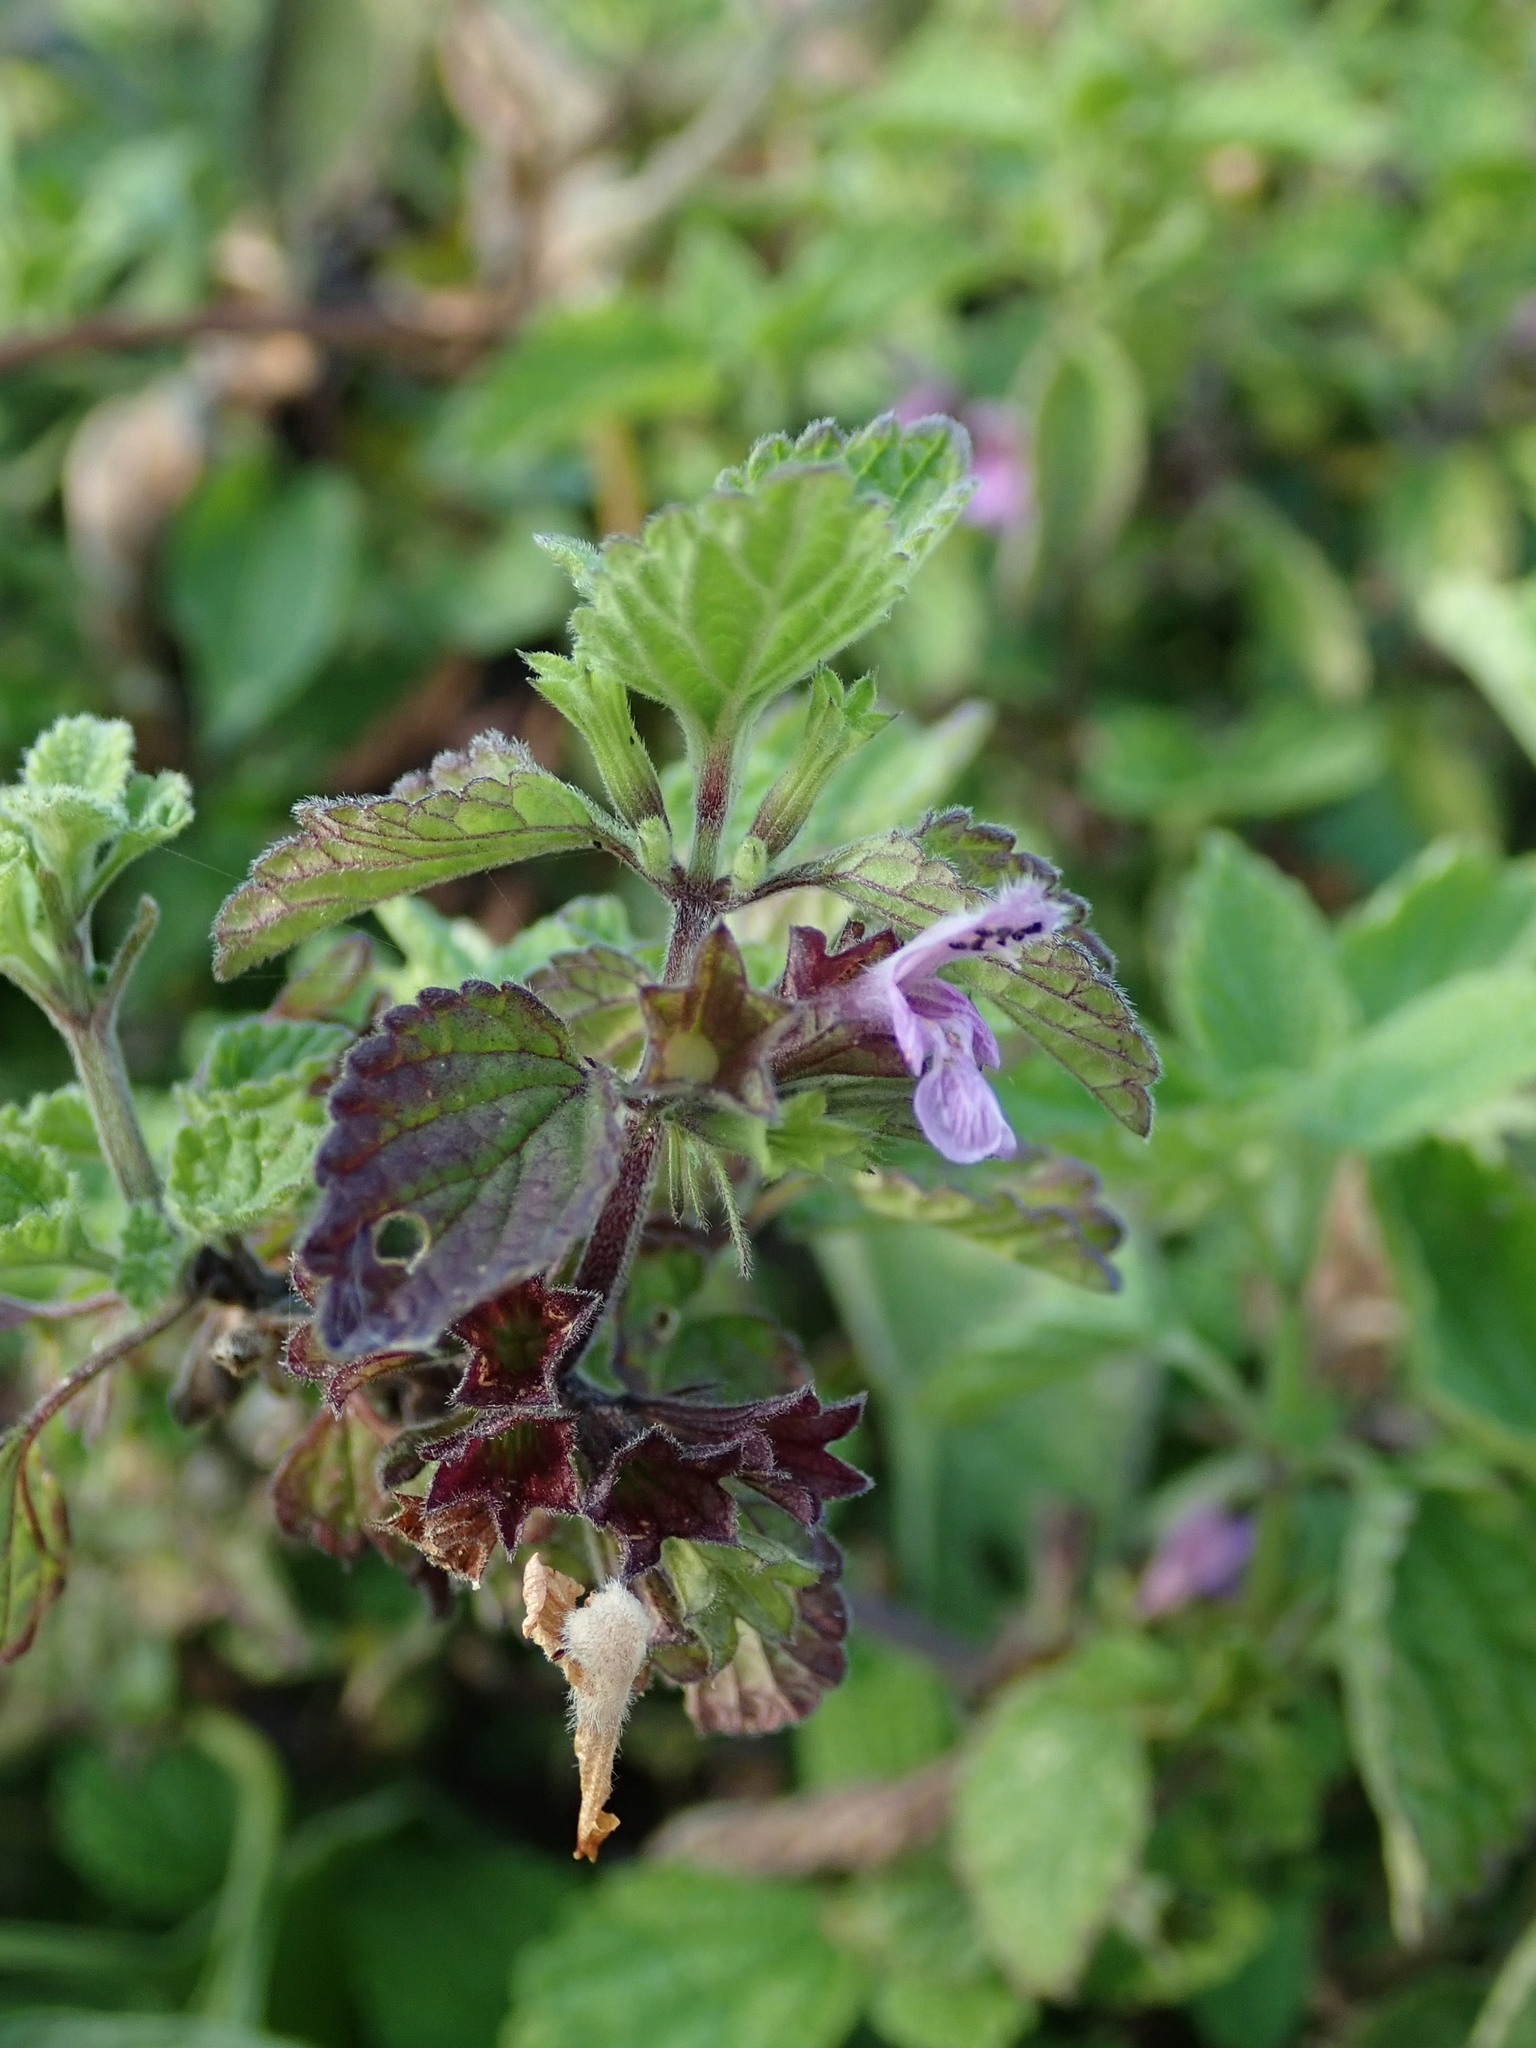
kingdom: Plantae
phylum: Tracheophyta
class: Magnoliopsida
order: Lamiales
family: Lamiaceae
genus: Ballota
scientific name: Ballota nigra
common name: Black horehound
